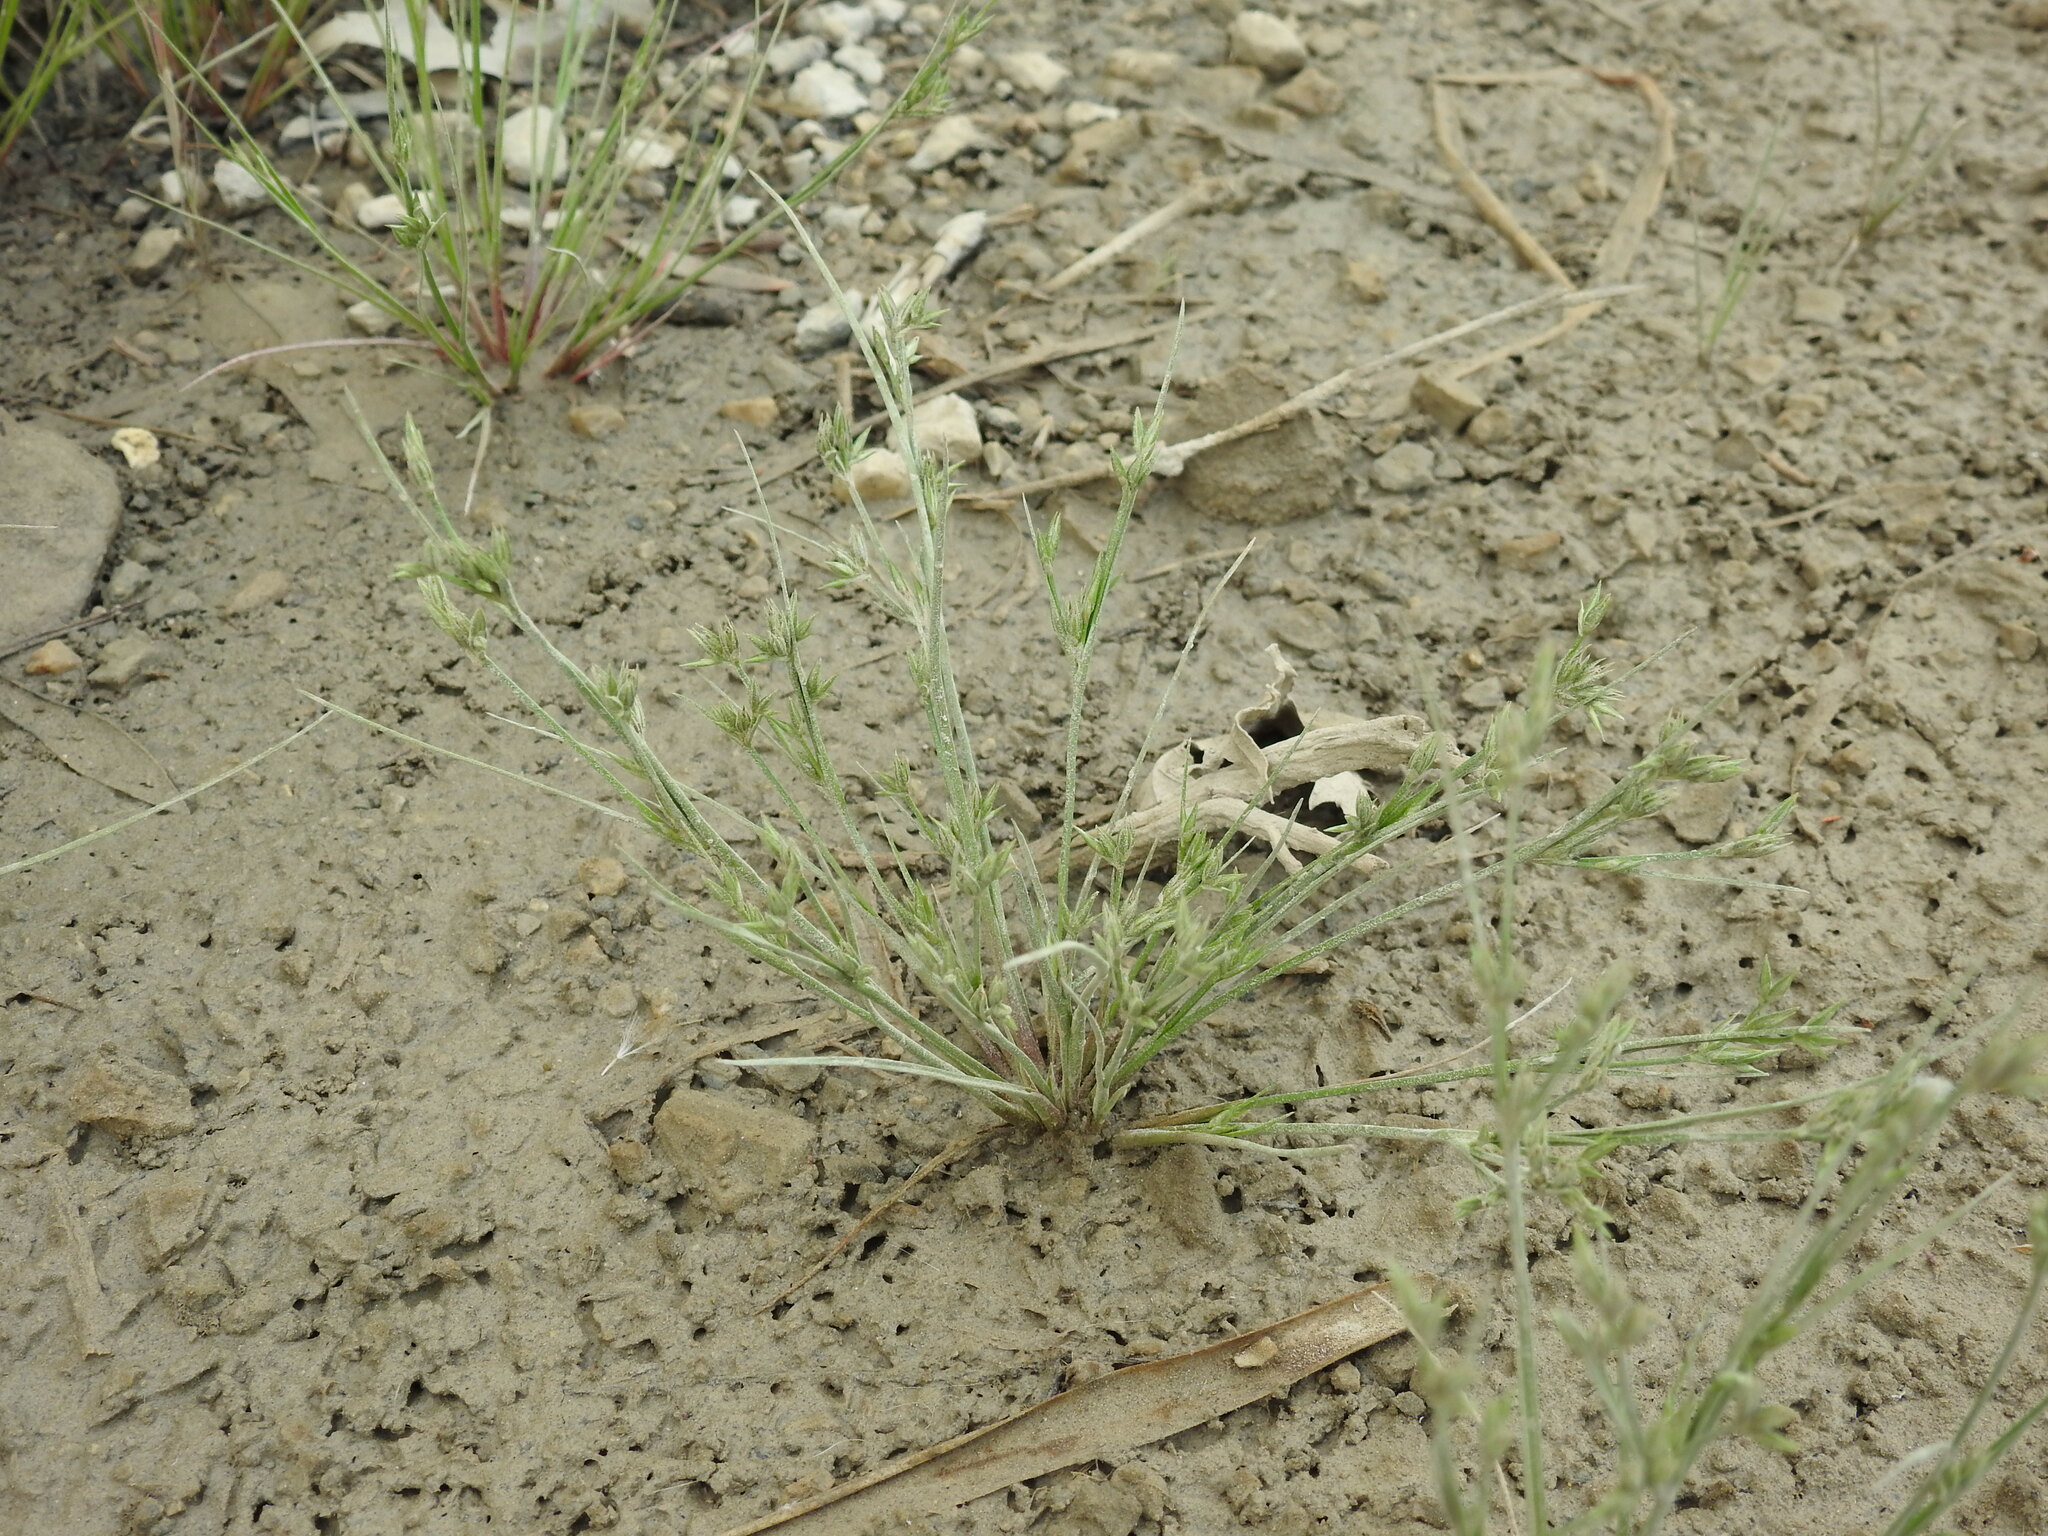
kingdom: Plantae
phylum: Tracheophyta
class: Liliopsida
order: Poales
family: Juncaceae
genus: Juncus
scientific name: Juncus capitatus
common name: Dwarf rush
